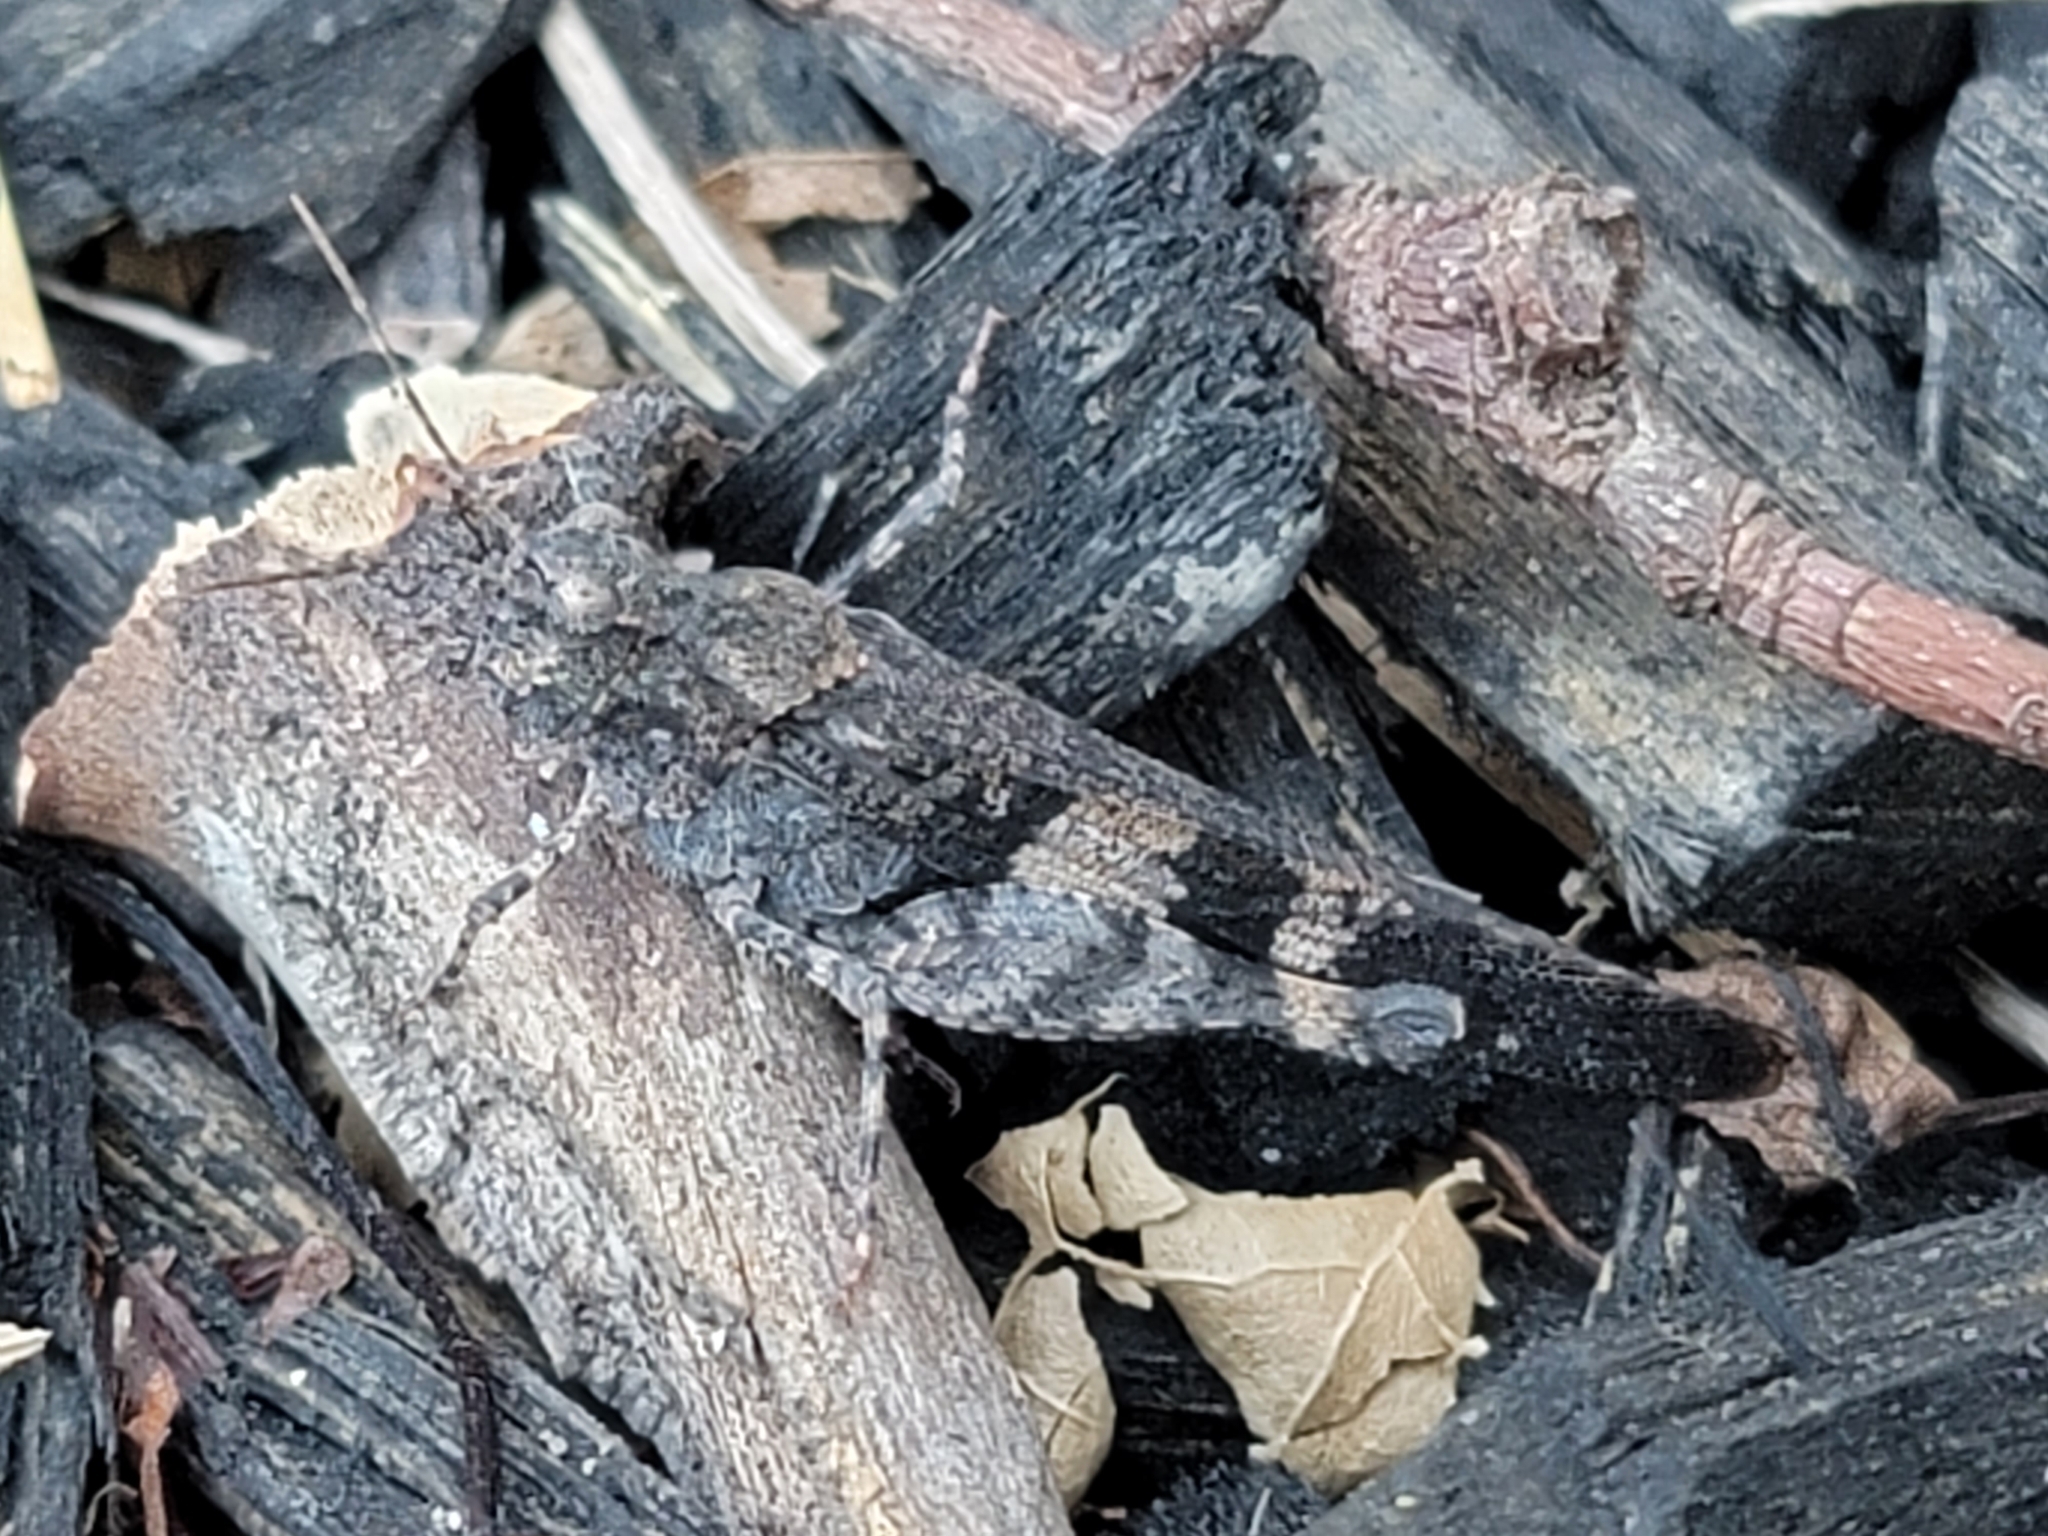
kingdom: Animalia
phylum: Arthropoda
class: Insecta
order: Orthoptera
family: Acrididae
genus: Trimerotropis
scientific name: Trimerotropis fontana
